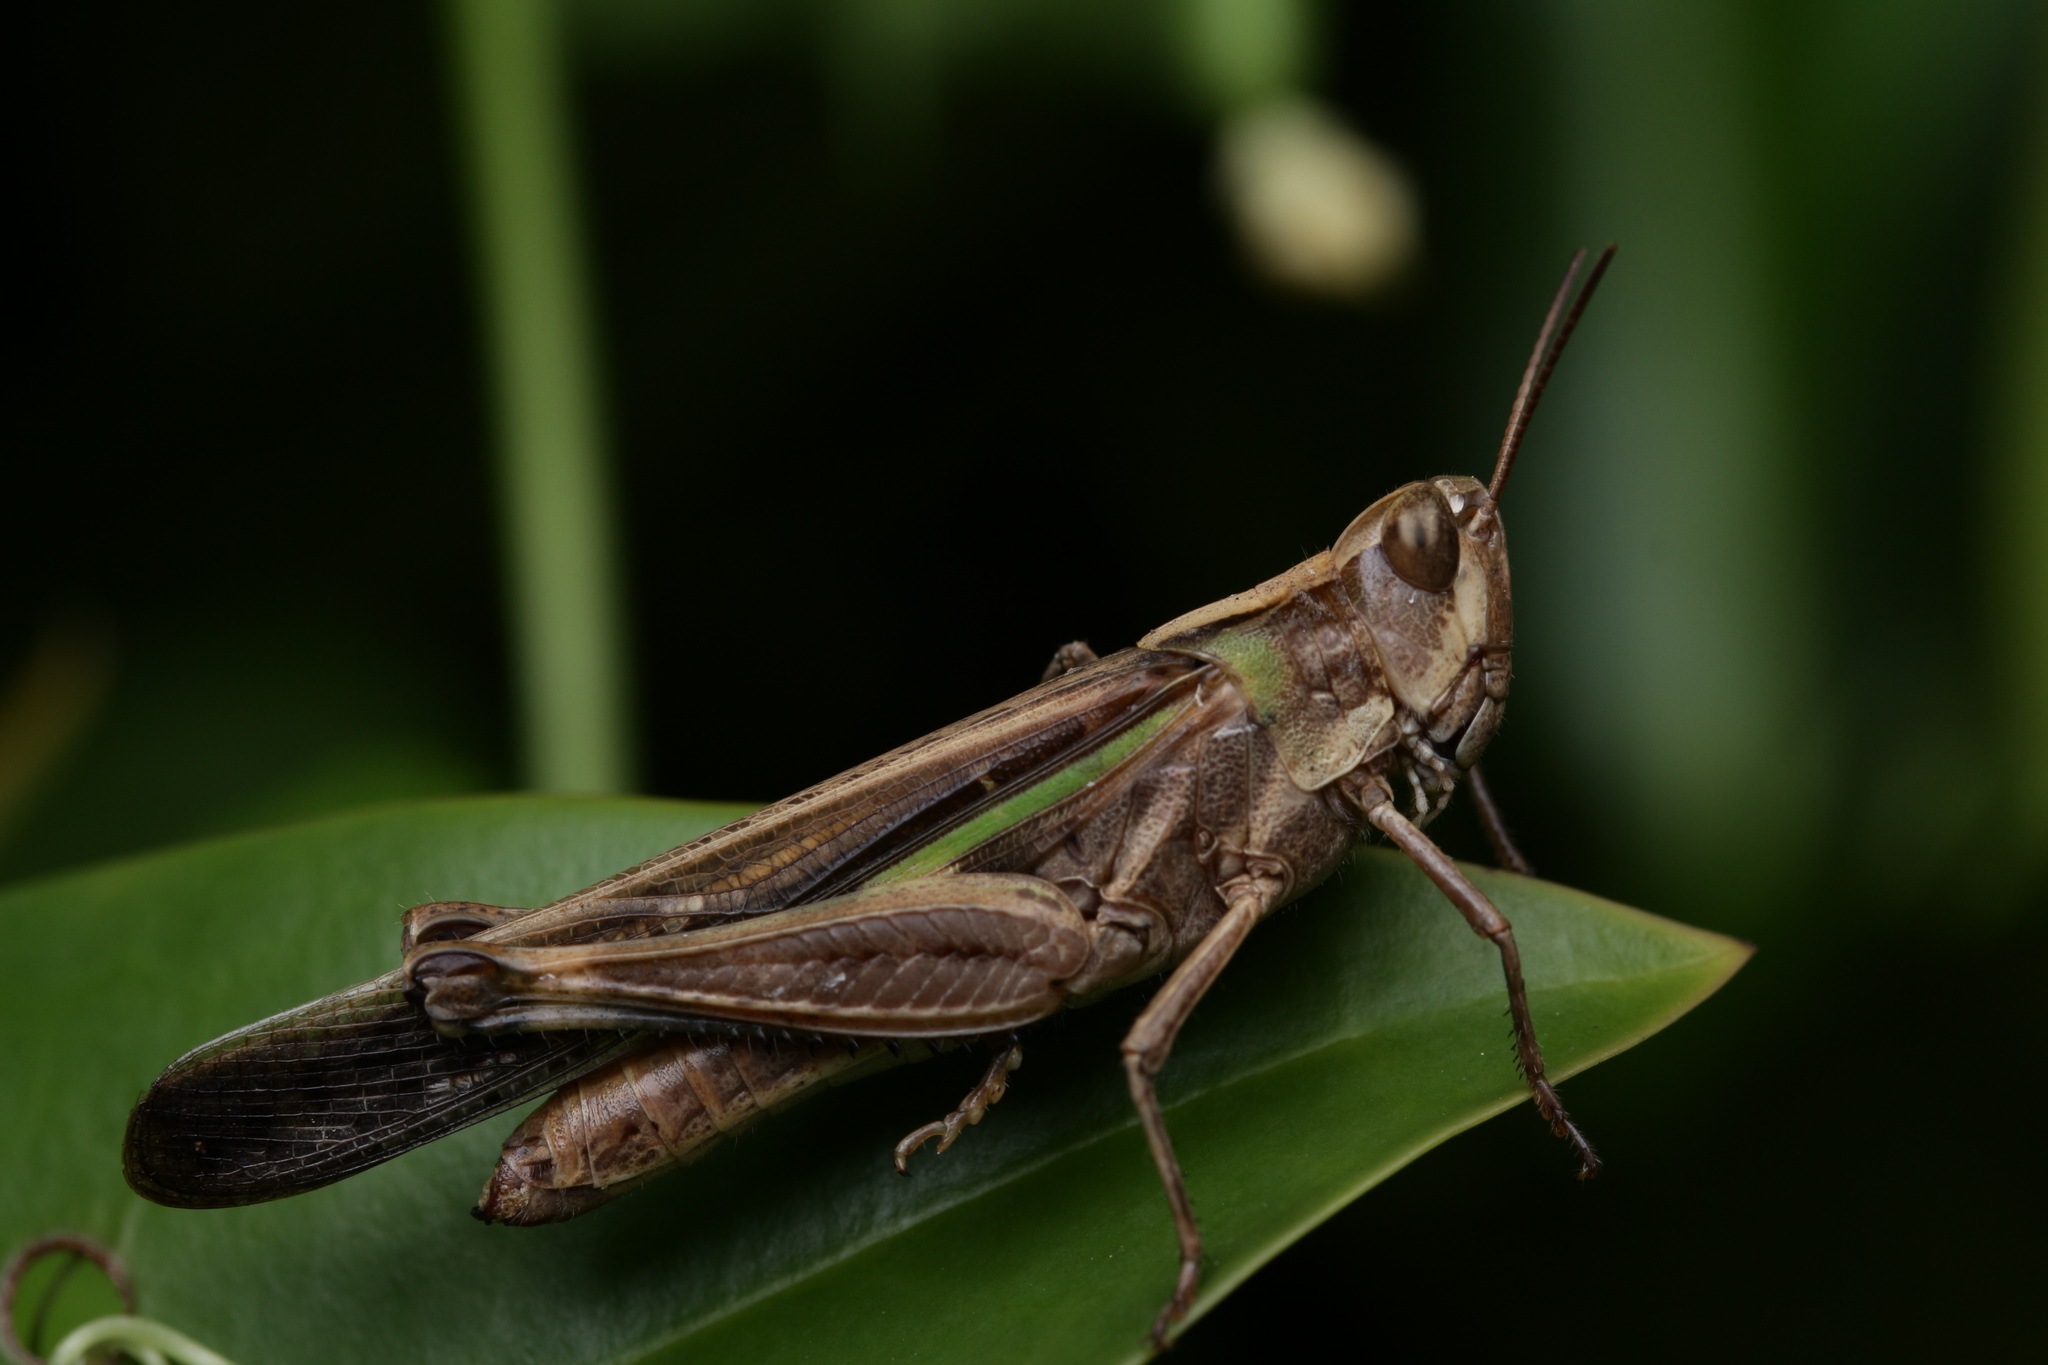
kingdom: Animalia
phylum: Arthropoda
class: Insecta
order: Orthoptera
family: Acrididae
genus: Aiolopus
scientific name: Aiolopus thalassinus
